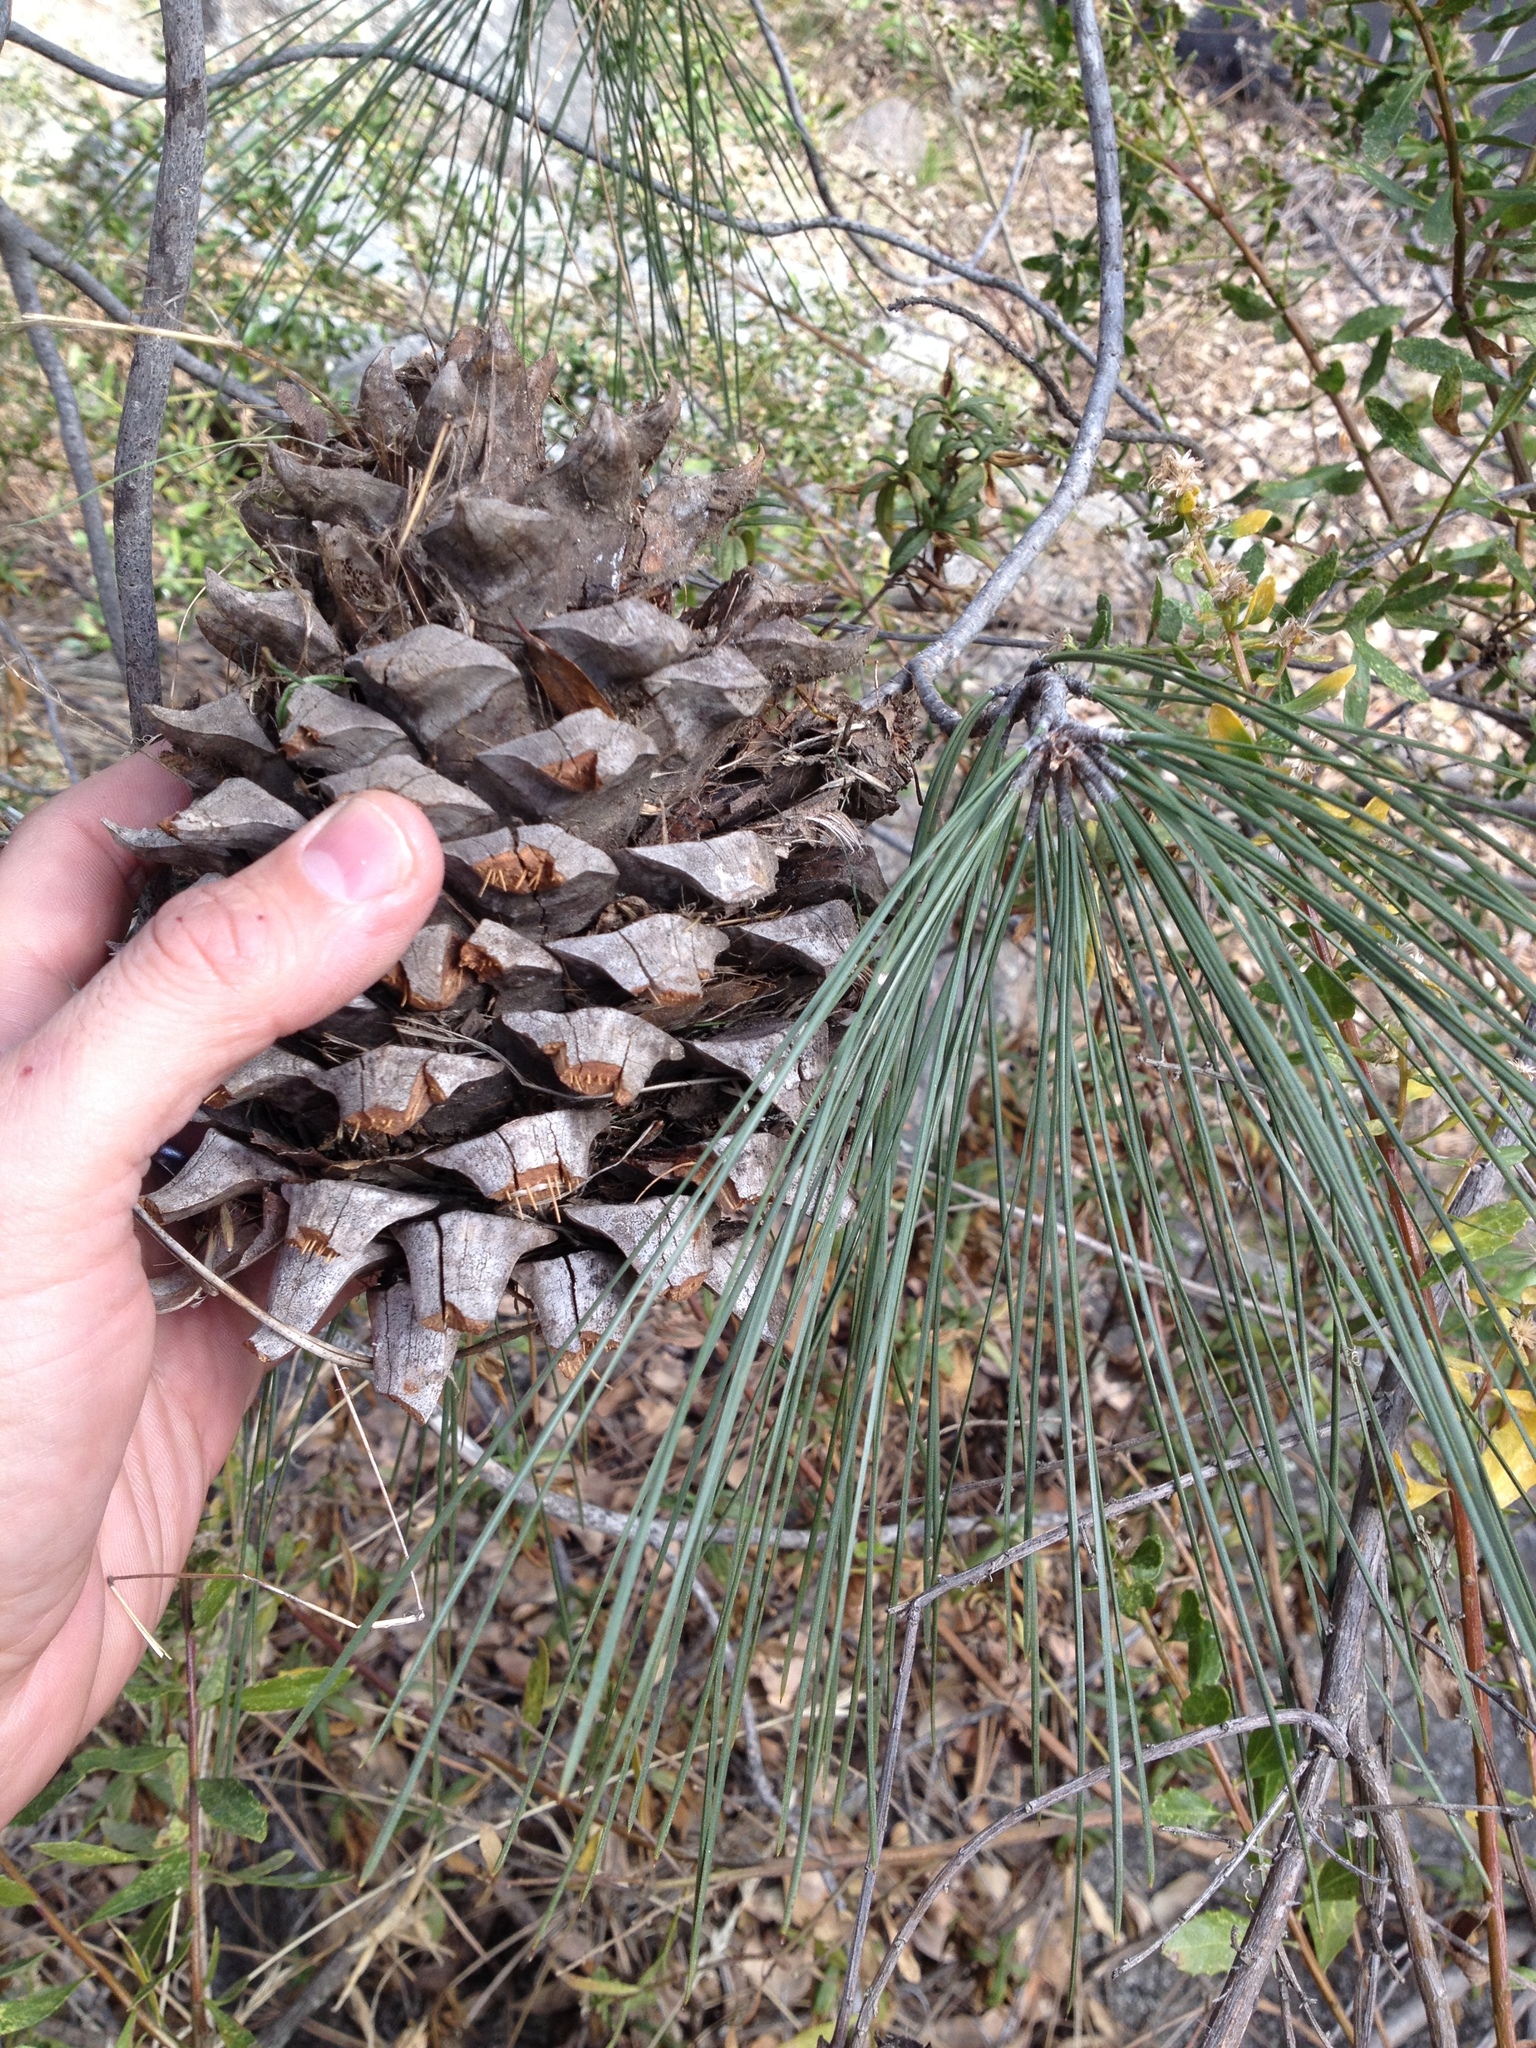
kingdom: Plantae
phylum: Tracheophyta
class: Pinopsida
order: Pinales
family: Pinaceae
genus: Pinus
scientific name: Pinus sabiniana
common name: Bull pine
